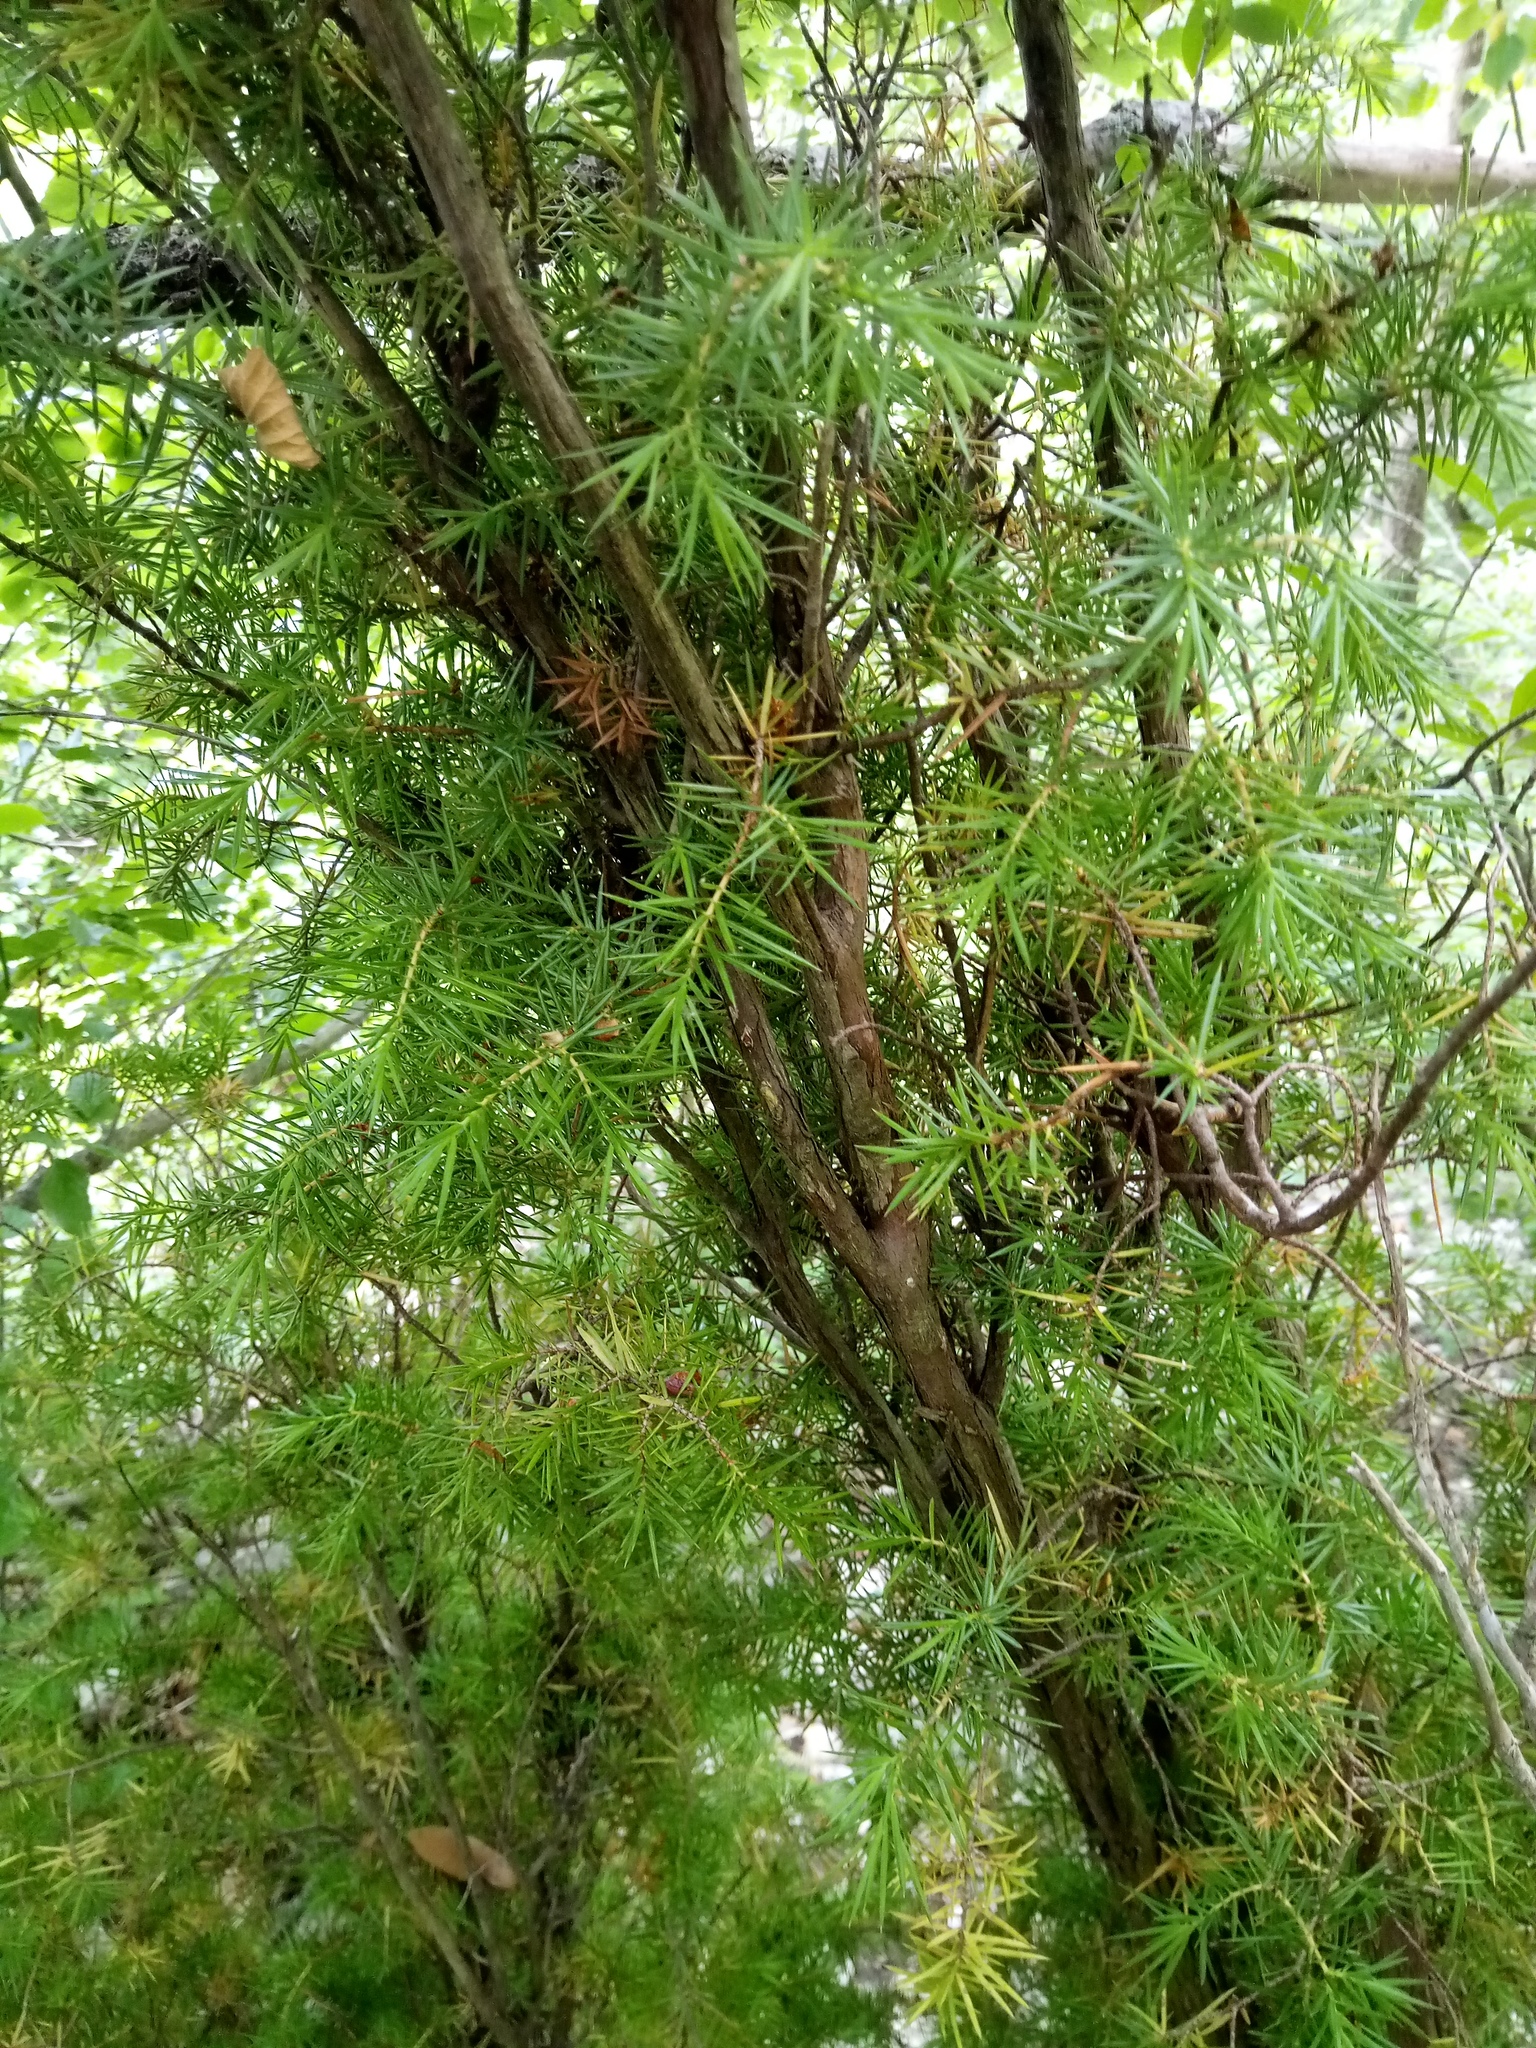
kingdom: Plantae
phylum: Tracheophyta
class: Pinopsida
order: Pinales
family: Cupressaceae
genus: Juniperus
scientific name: Juniperus communis
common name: Common juniper
